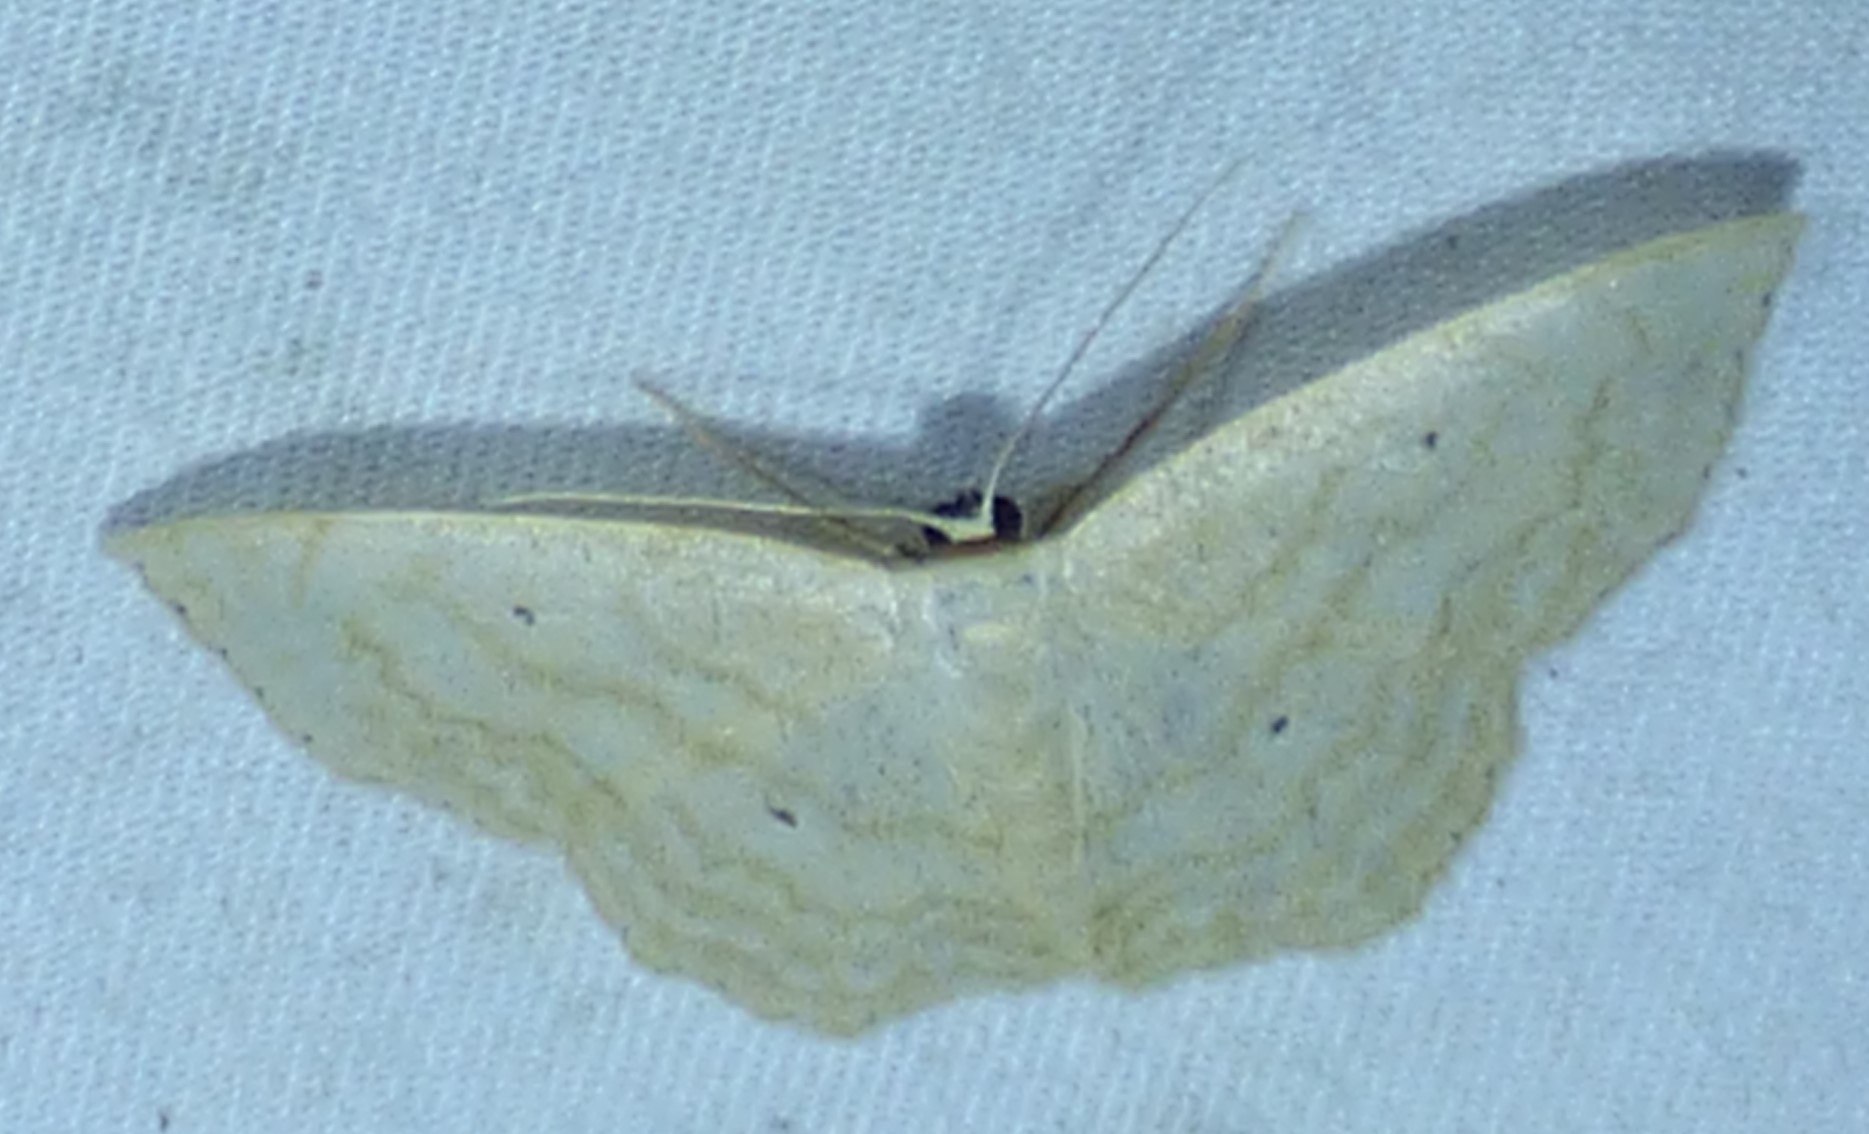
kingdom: Animalia
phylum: Arthropoda
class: Insecta
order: Lepidoptera
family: Geometridae
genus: Scopula
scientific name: Scopula limboundata
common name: Large lace border
